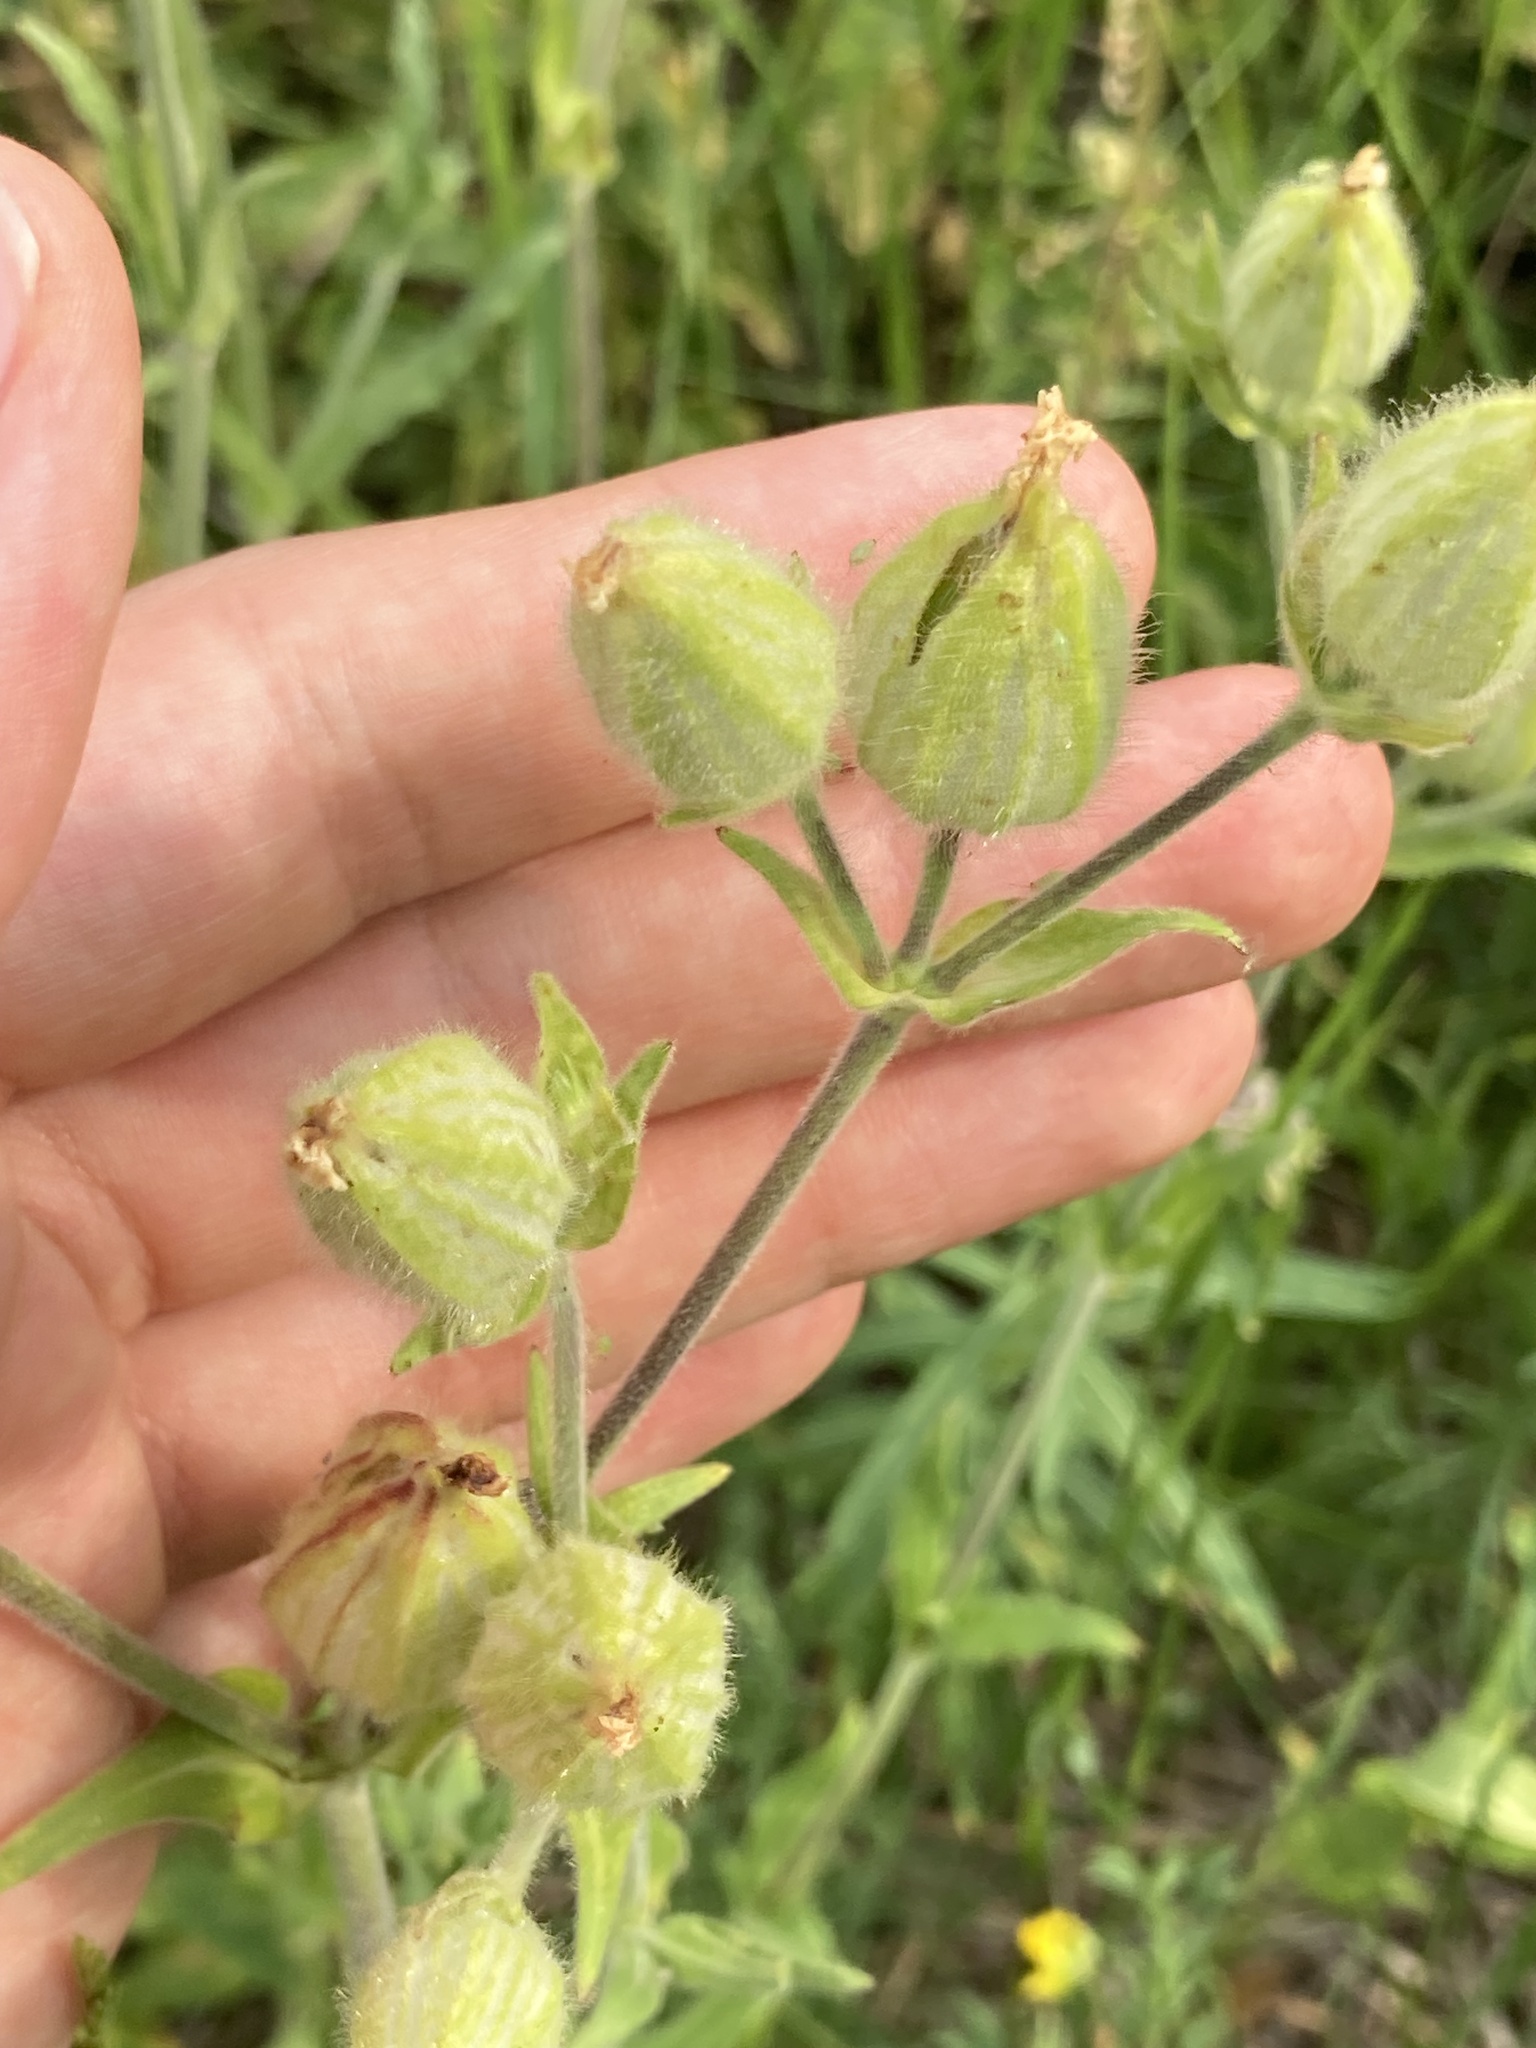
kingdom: Plantae
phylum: Tracheophyta
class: Magnoliopsida
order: Caryophyllales
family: Caryophyllaceae
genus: Silene
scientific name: Silene latifolia
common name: White campion
